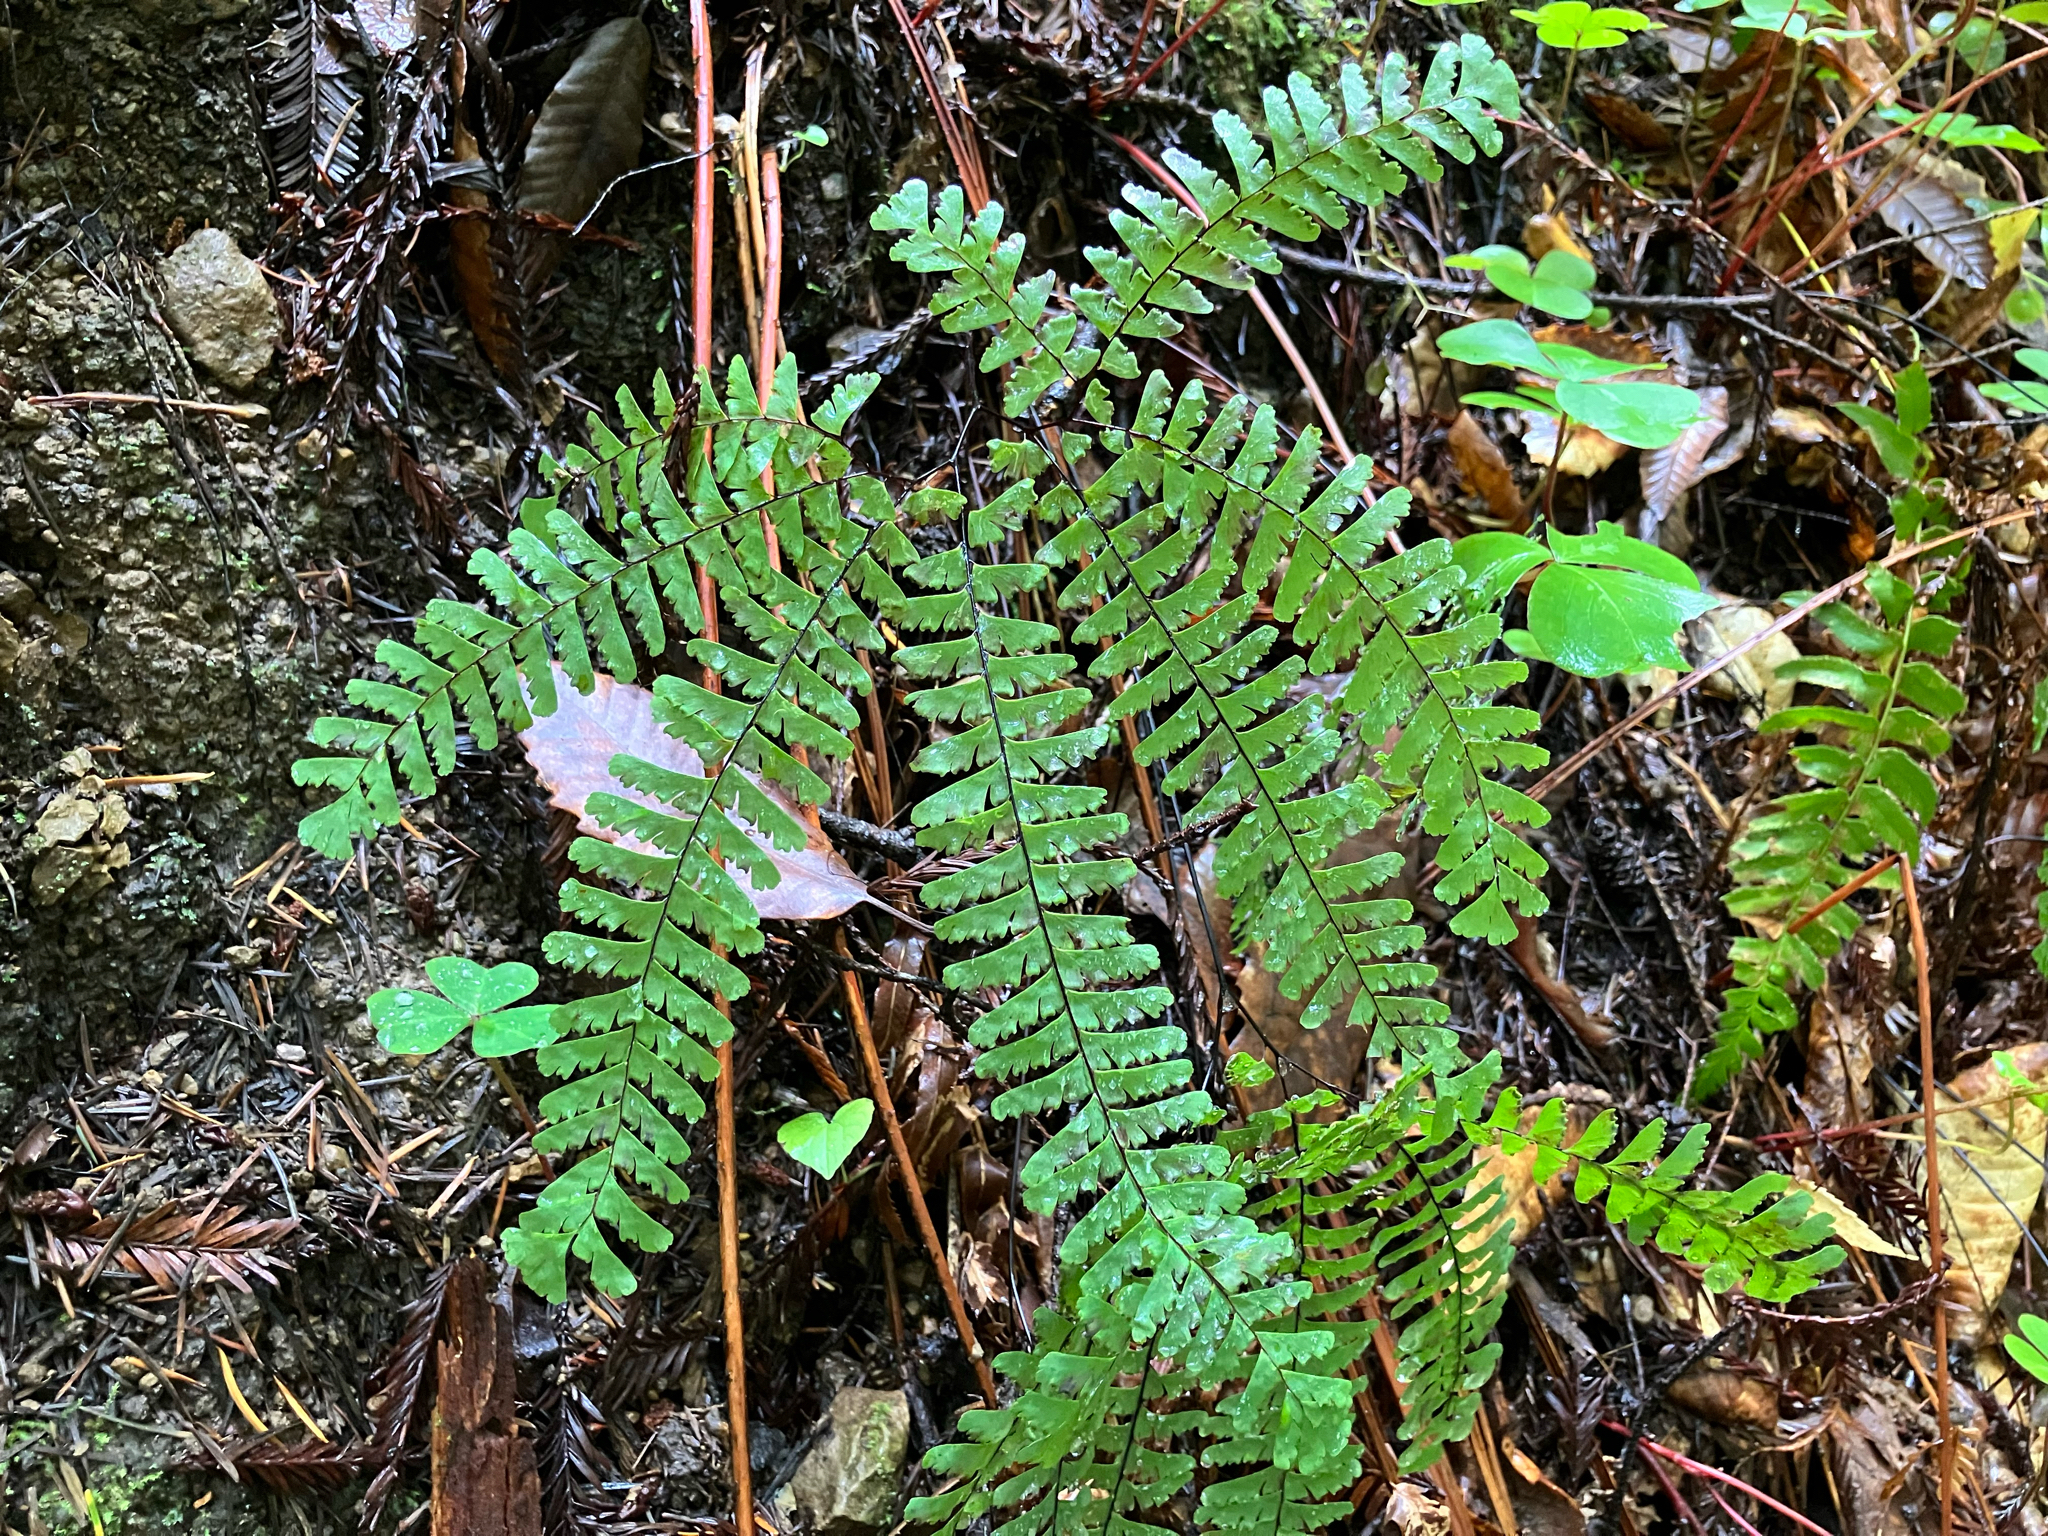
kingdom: Plantae
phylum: Tracheophyta
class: Polypodiopsida
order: Polypodiales
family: Pteridaceae
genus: Adiantum
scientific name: Adiantum aleuticum
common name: Aleutian maidenhair fern
